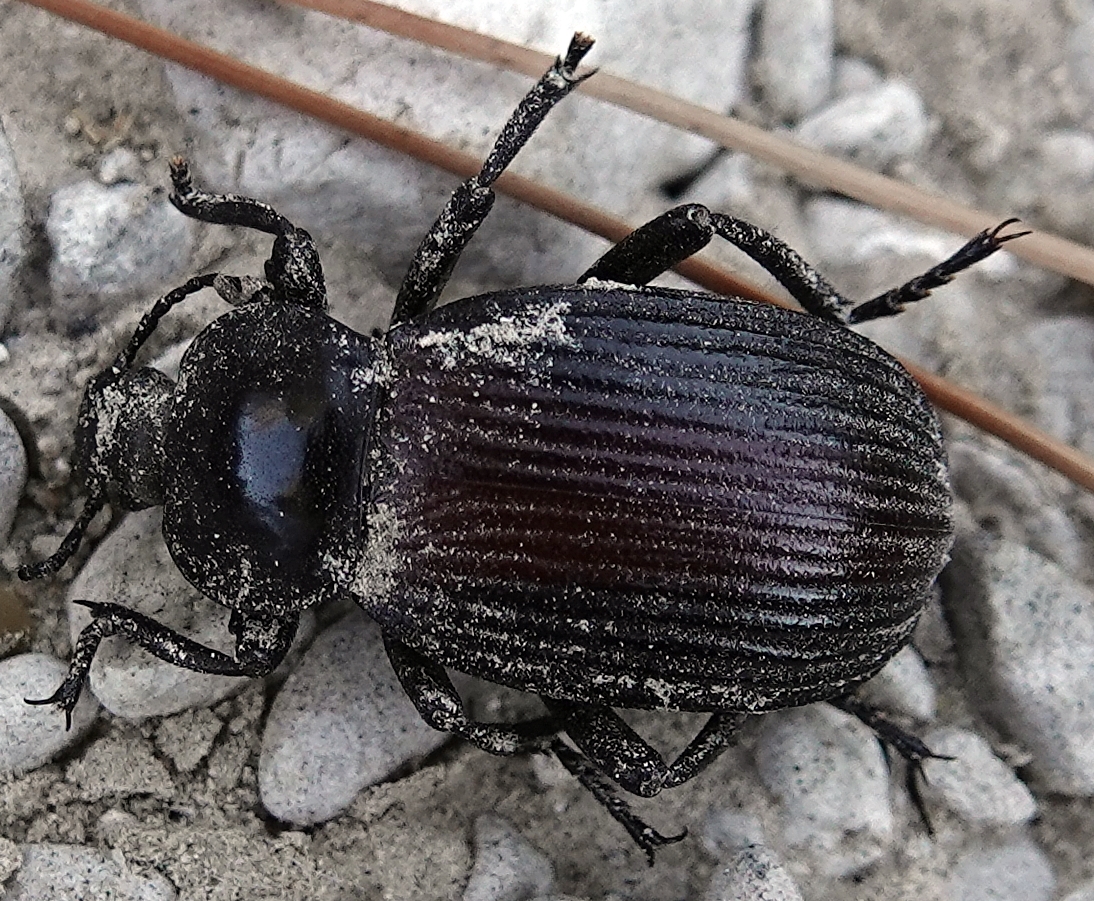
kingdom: Animalia
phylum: Arthropoda
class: Insecta
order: Coleoptera
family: Tenebrionidae
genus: Eleodes
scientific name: Eleodes acuta
